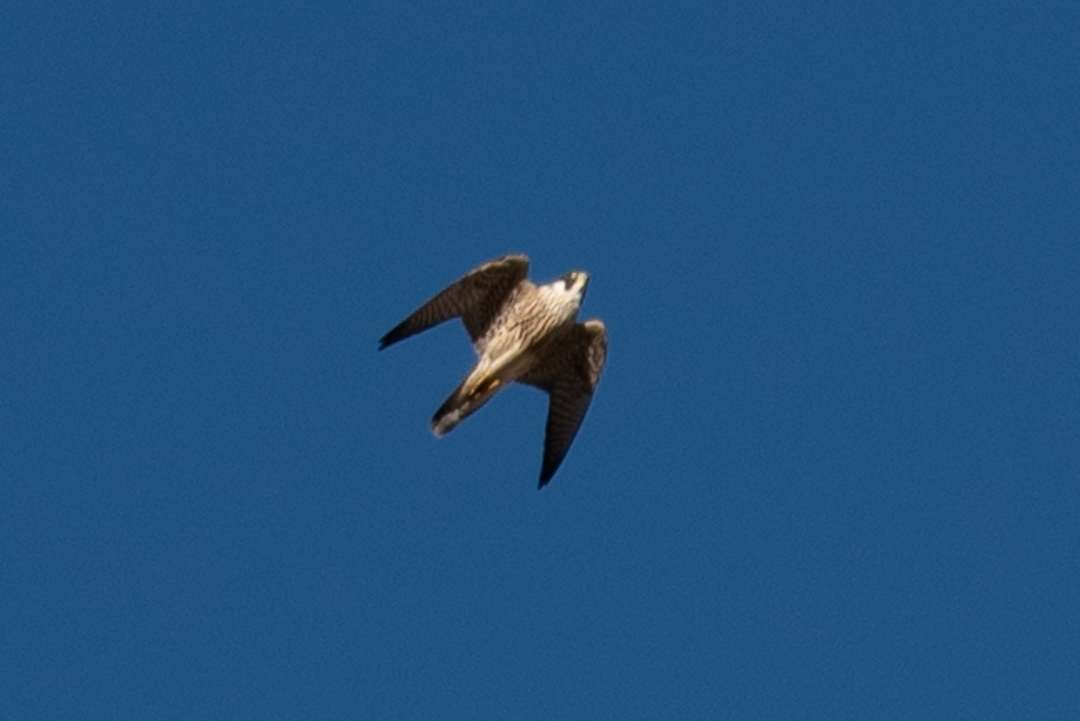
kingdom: Animalia
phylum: Chordata
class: Aves
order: Falconiformes
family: Falconidae
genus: Falco
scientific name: Falco peregrinus
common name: Peregrine falcon
